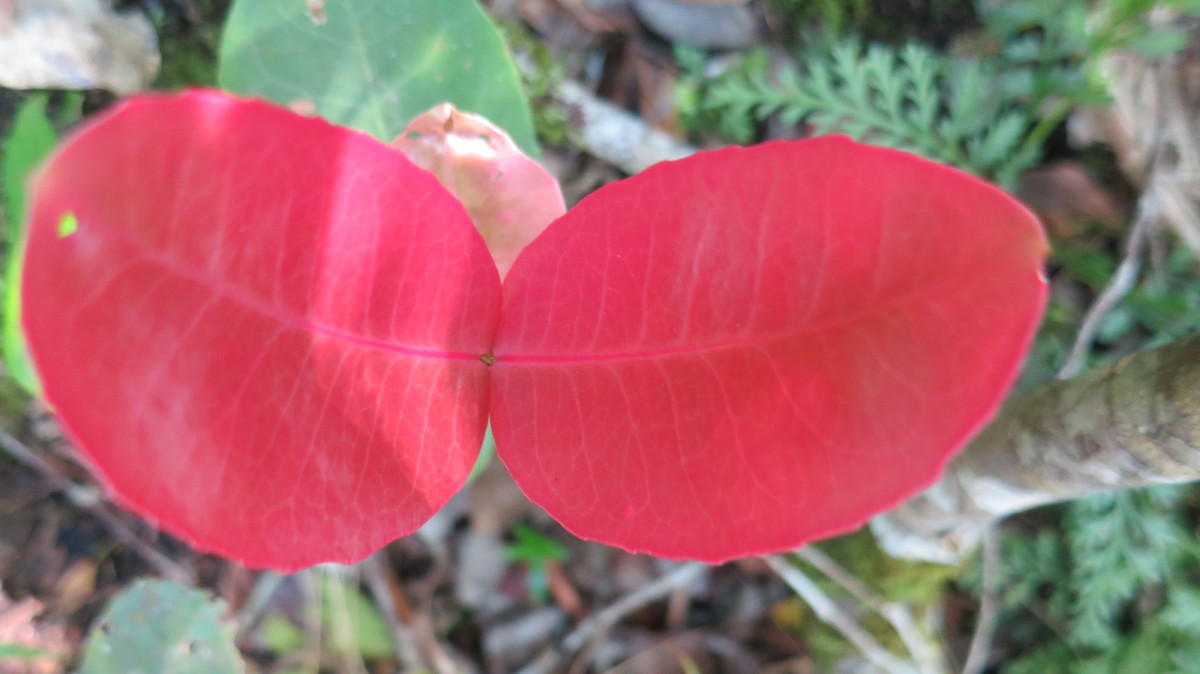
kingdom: Plantae
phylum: Tracheophyta
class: Magnoliopsida
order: Celastrales
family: Celastraceae
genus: Lauridia
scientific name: Lauridia tetragona
